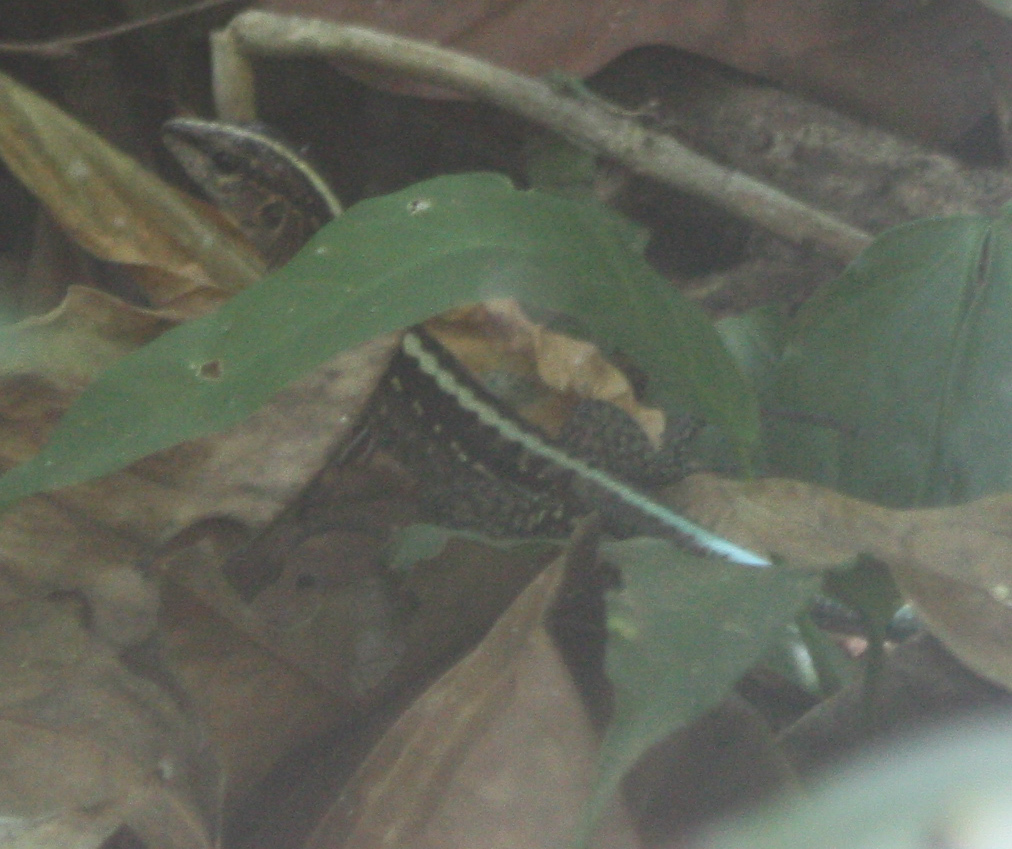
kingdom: Animalia
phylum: Chordata
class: Squamata
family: Teiidae
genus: Holcosus
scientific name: Holcosus festivus
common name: Middle american ameiva
